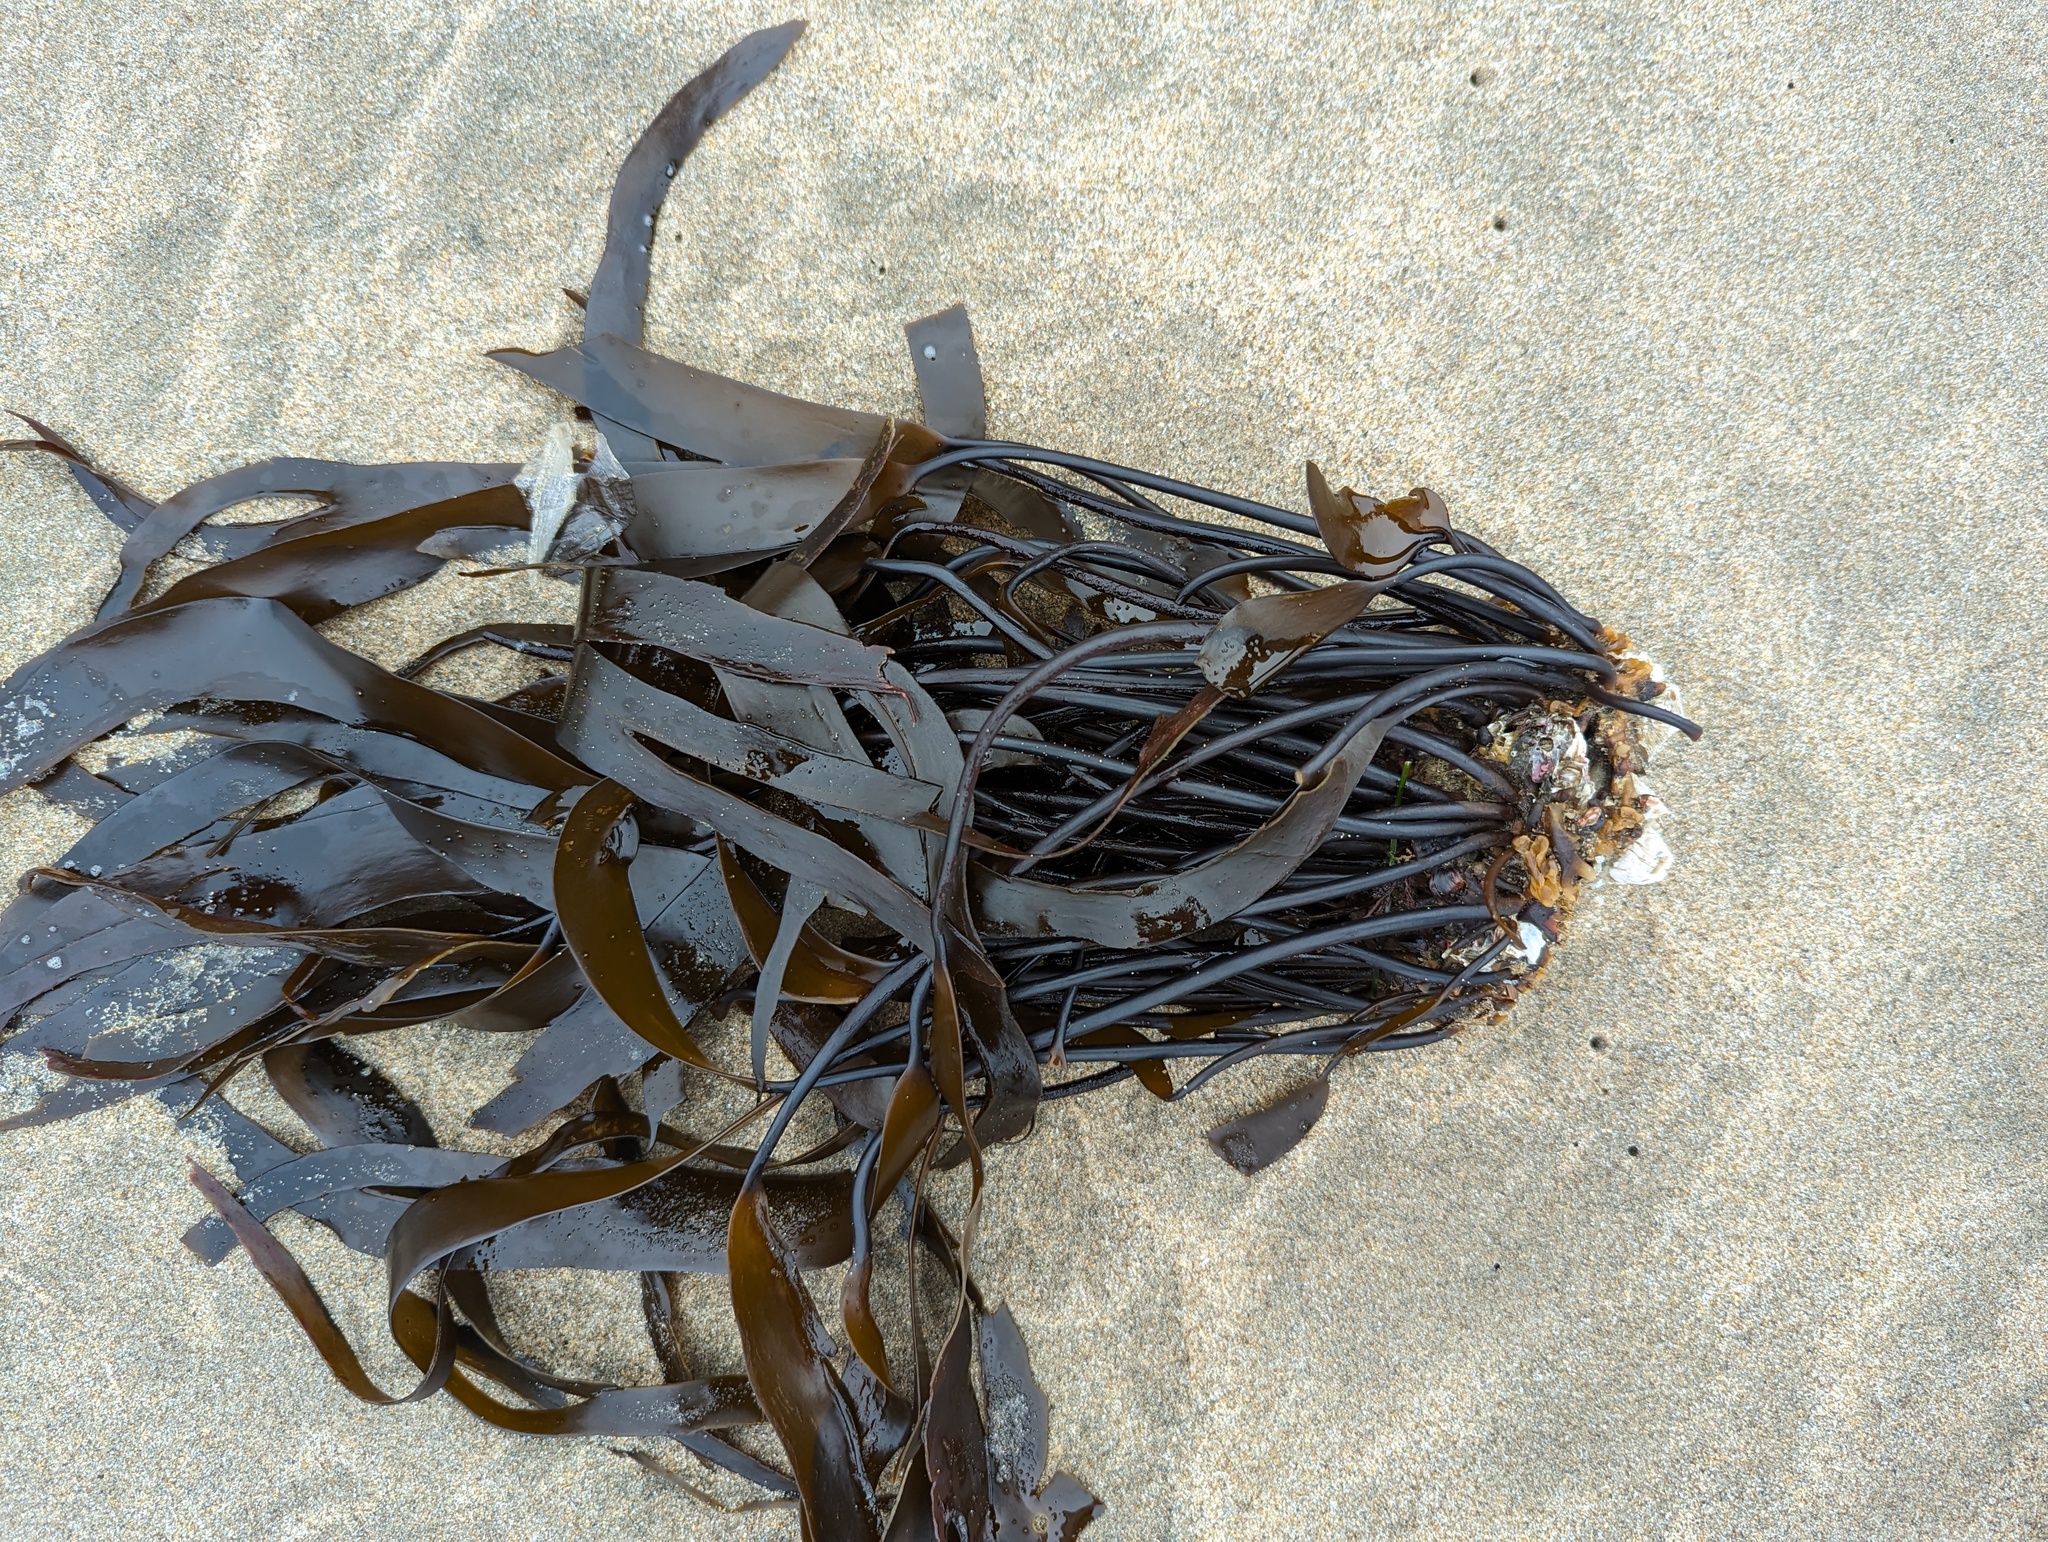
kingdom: Chromista
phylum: Ochrophyta
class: Phaeophyceae
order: Laminariales
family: Laminariaceae
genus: Laminaria
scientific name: Laminaria sinclairii
